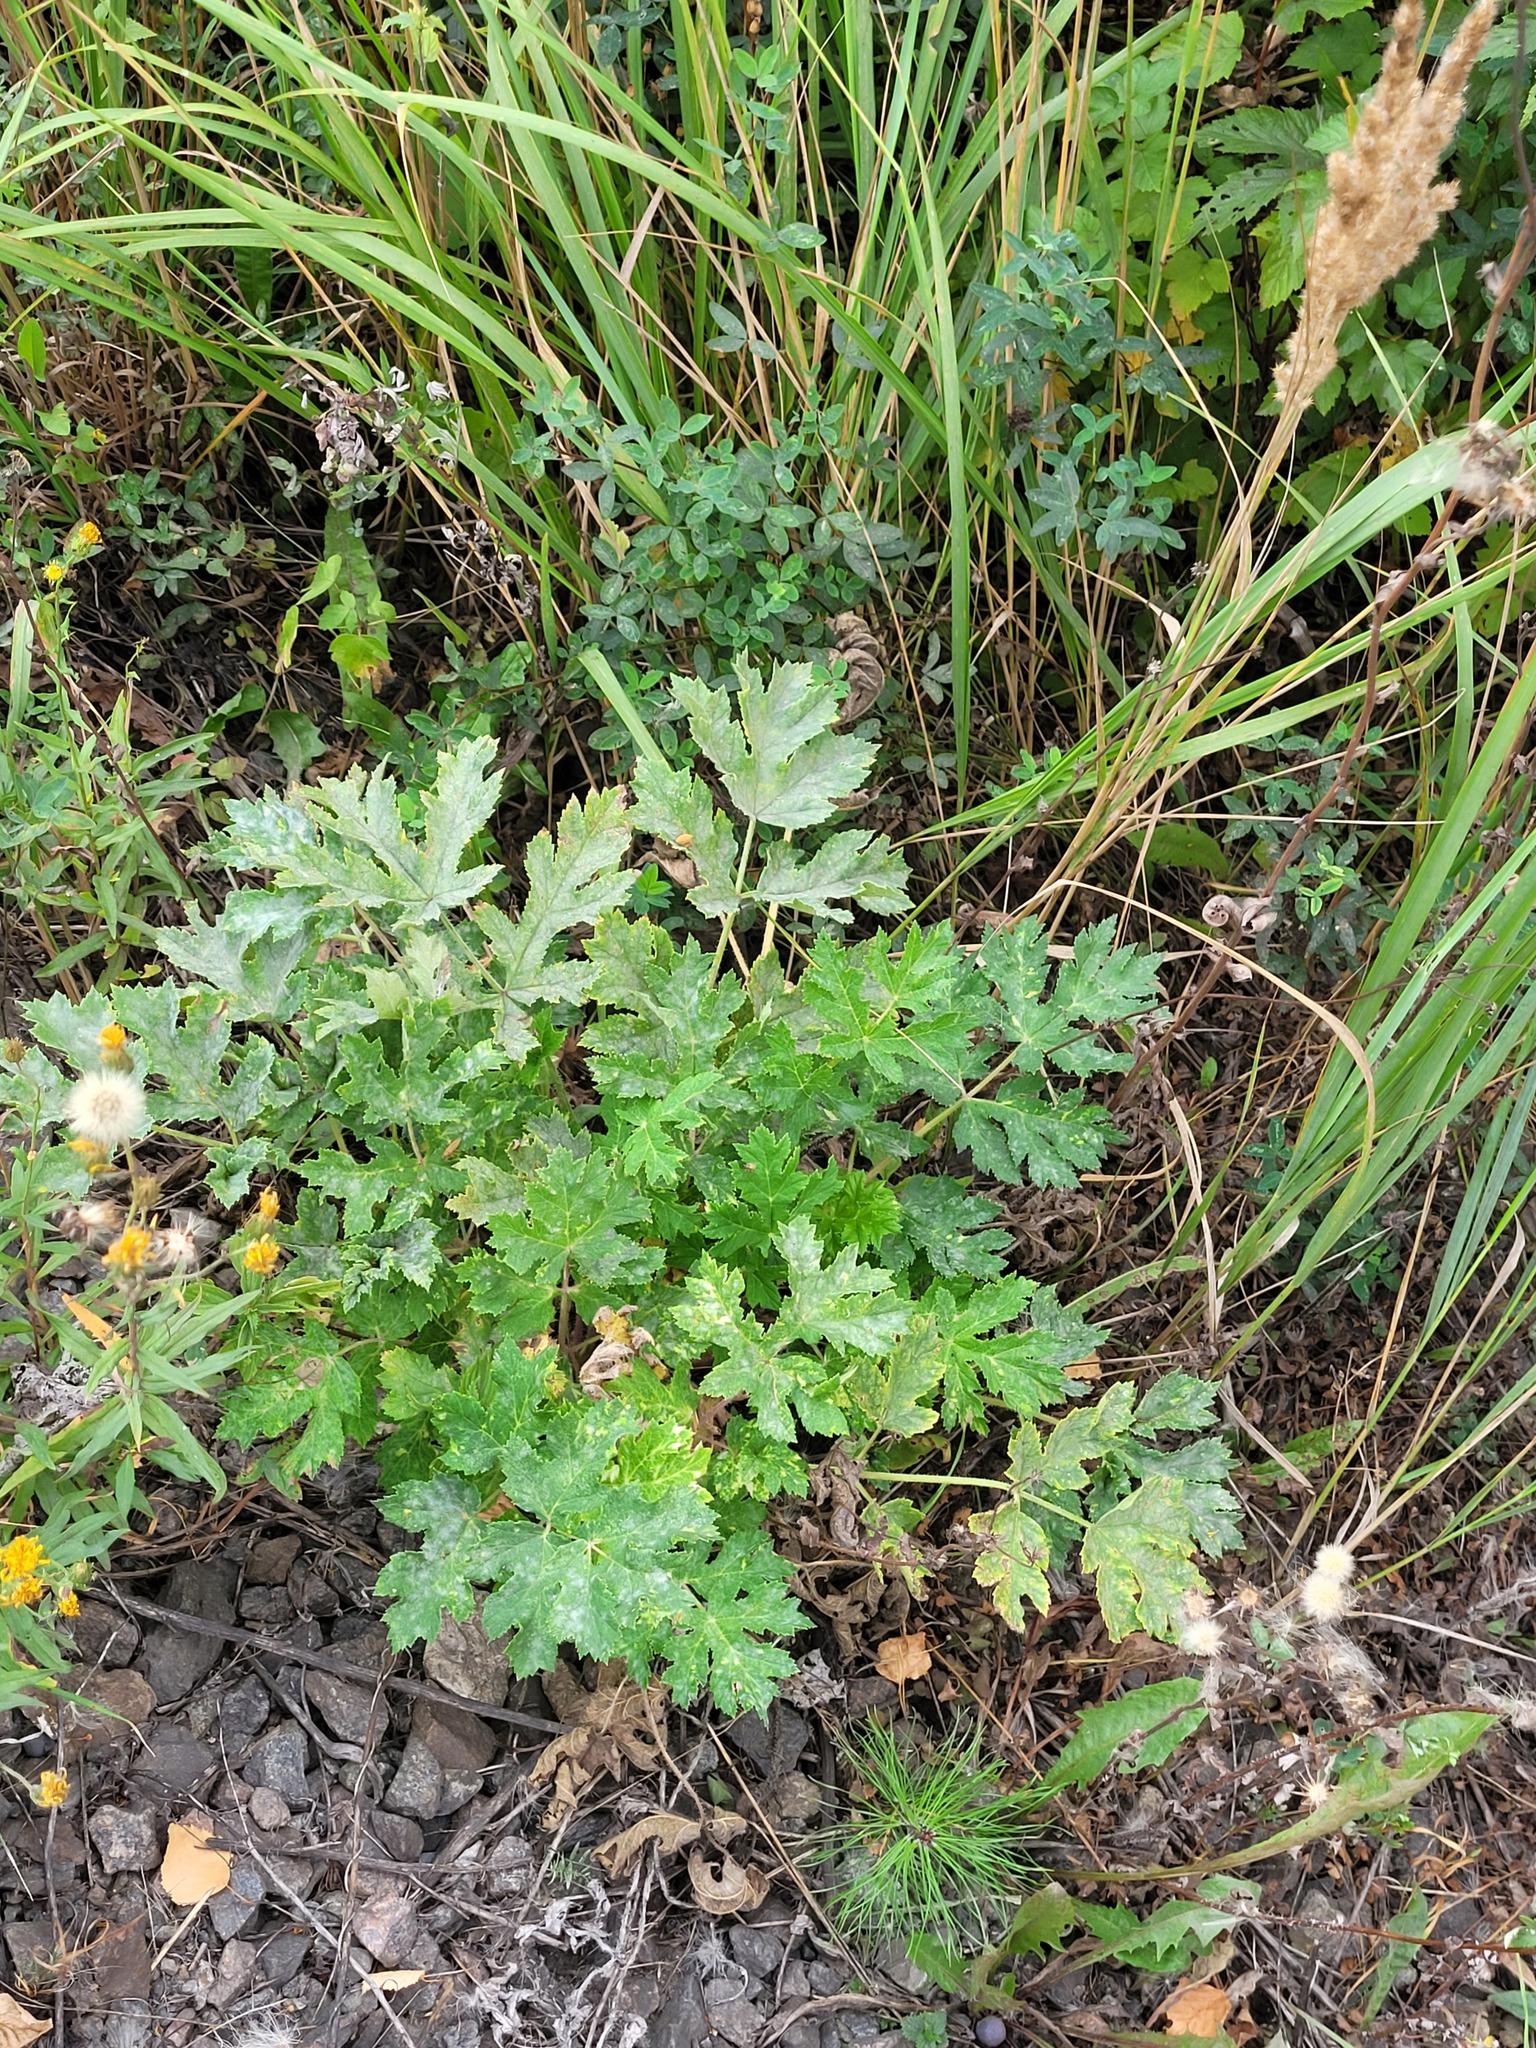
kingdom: Plantae
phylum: Tracheophyta
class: Magnoliopsida
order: Apiales
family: Apiaceae
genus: Heracleum
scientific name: Heracleum sphondylium
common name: Hogweed
